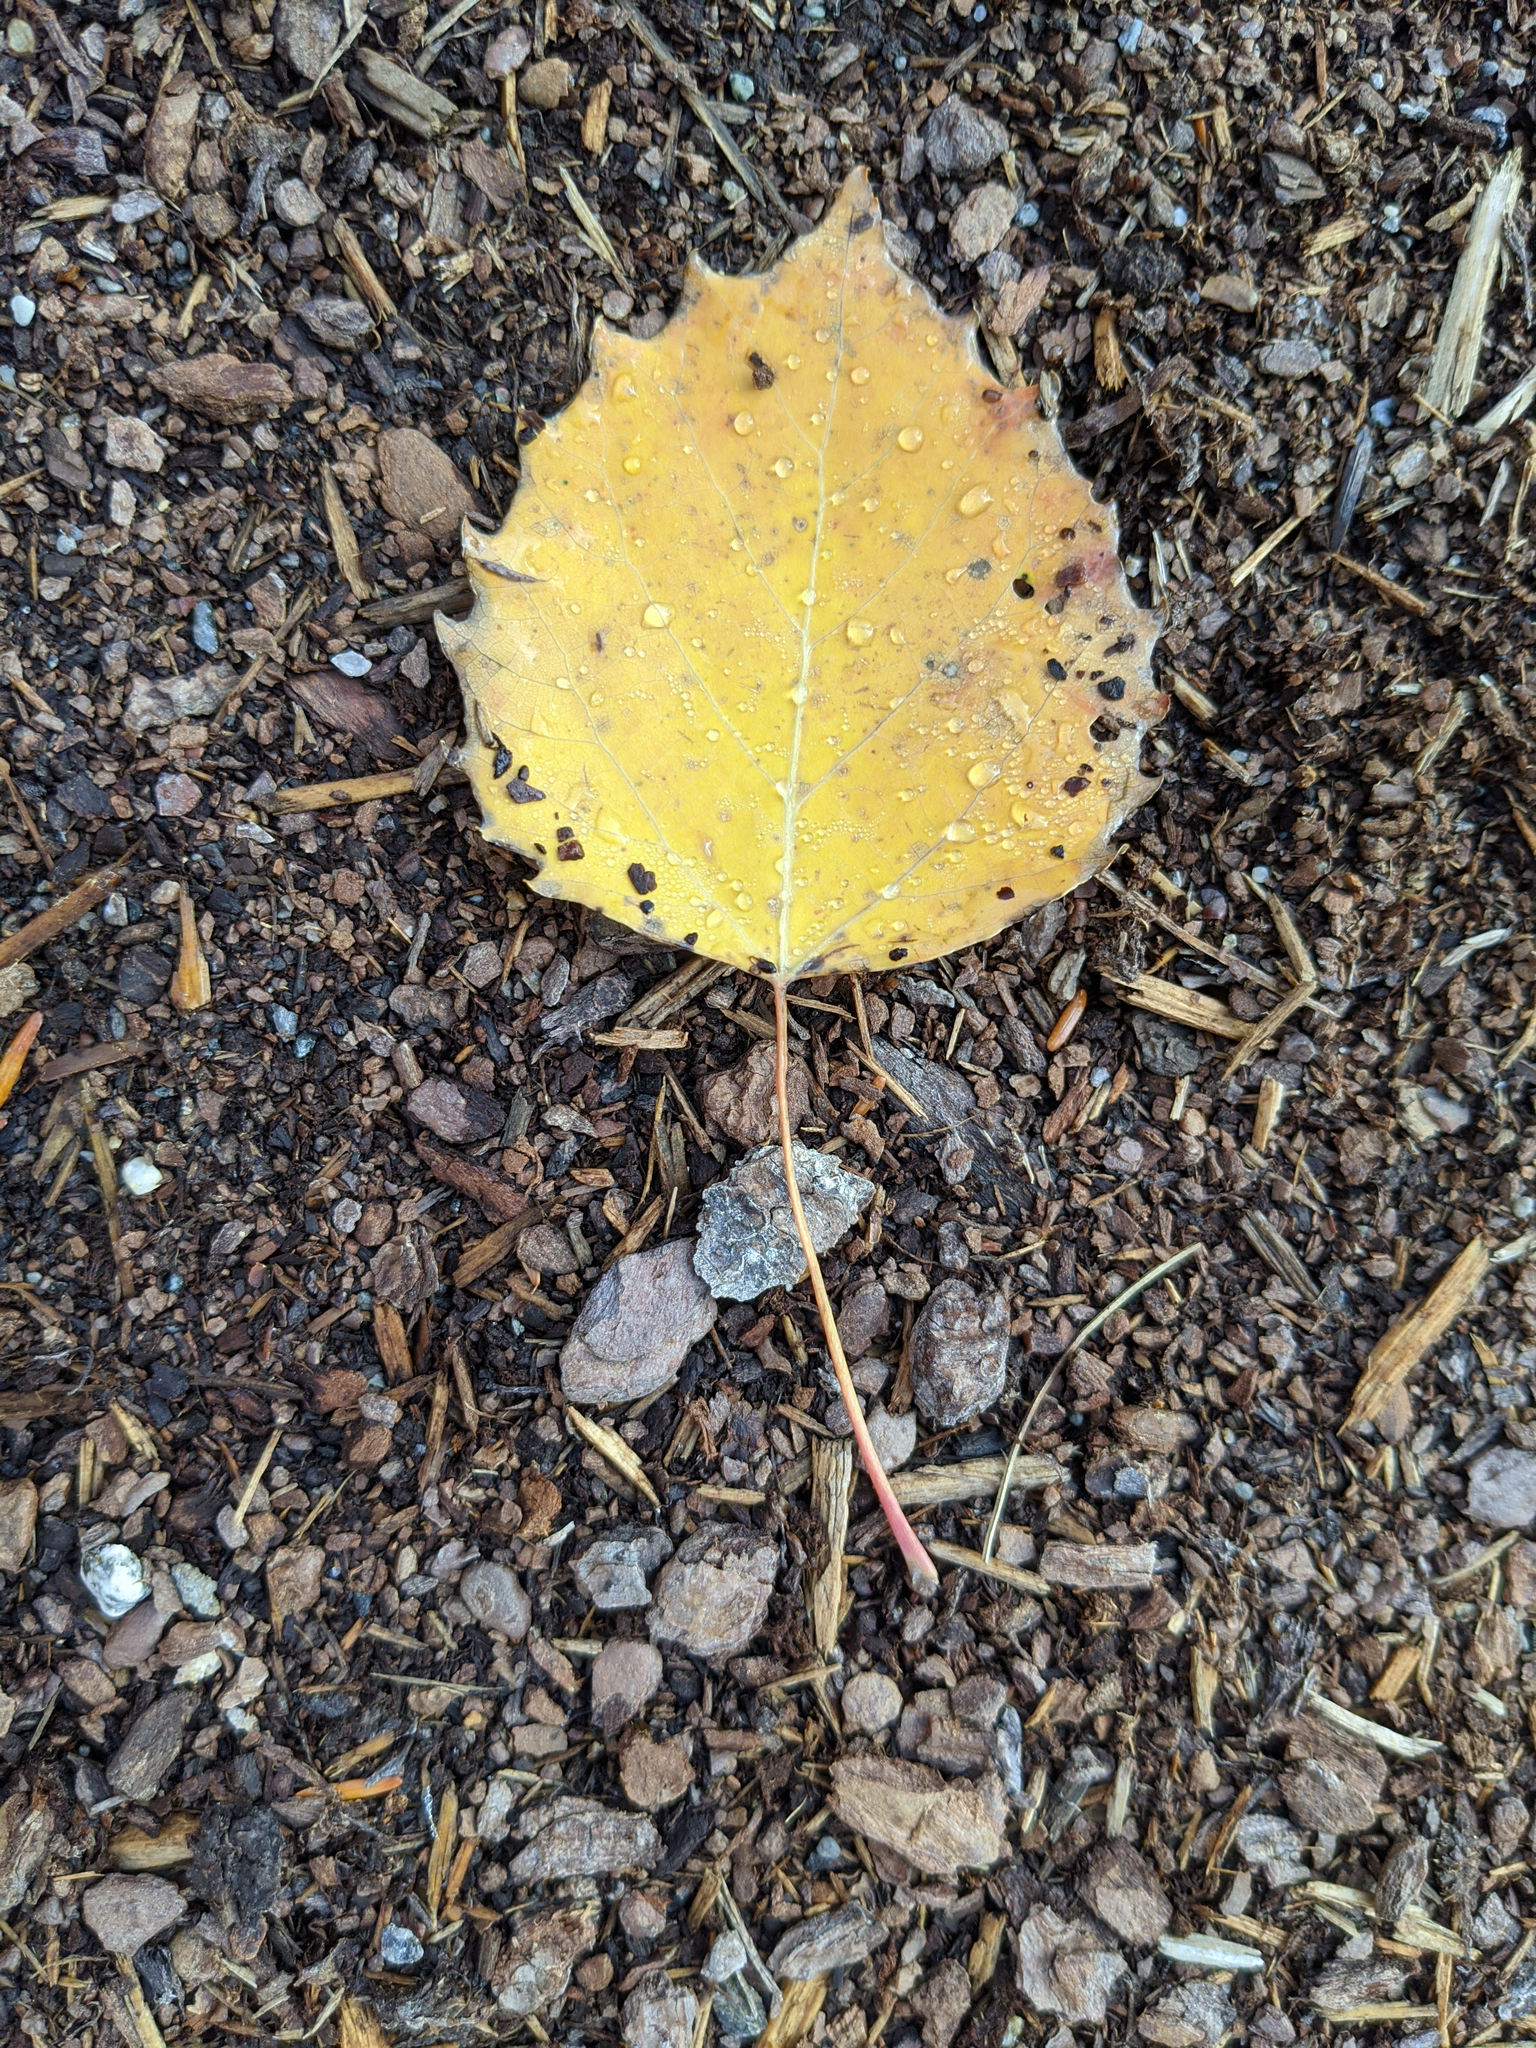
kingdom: Plantae
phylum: Tracheophyta
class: Magnoliopsida
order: Malpighiales
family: Salicaceae
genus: Populus
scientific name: Populus grandidentata
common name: Bigtooth aspen
